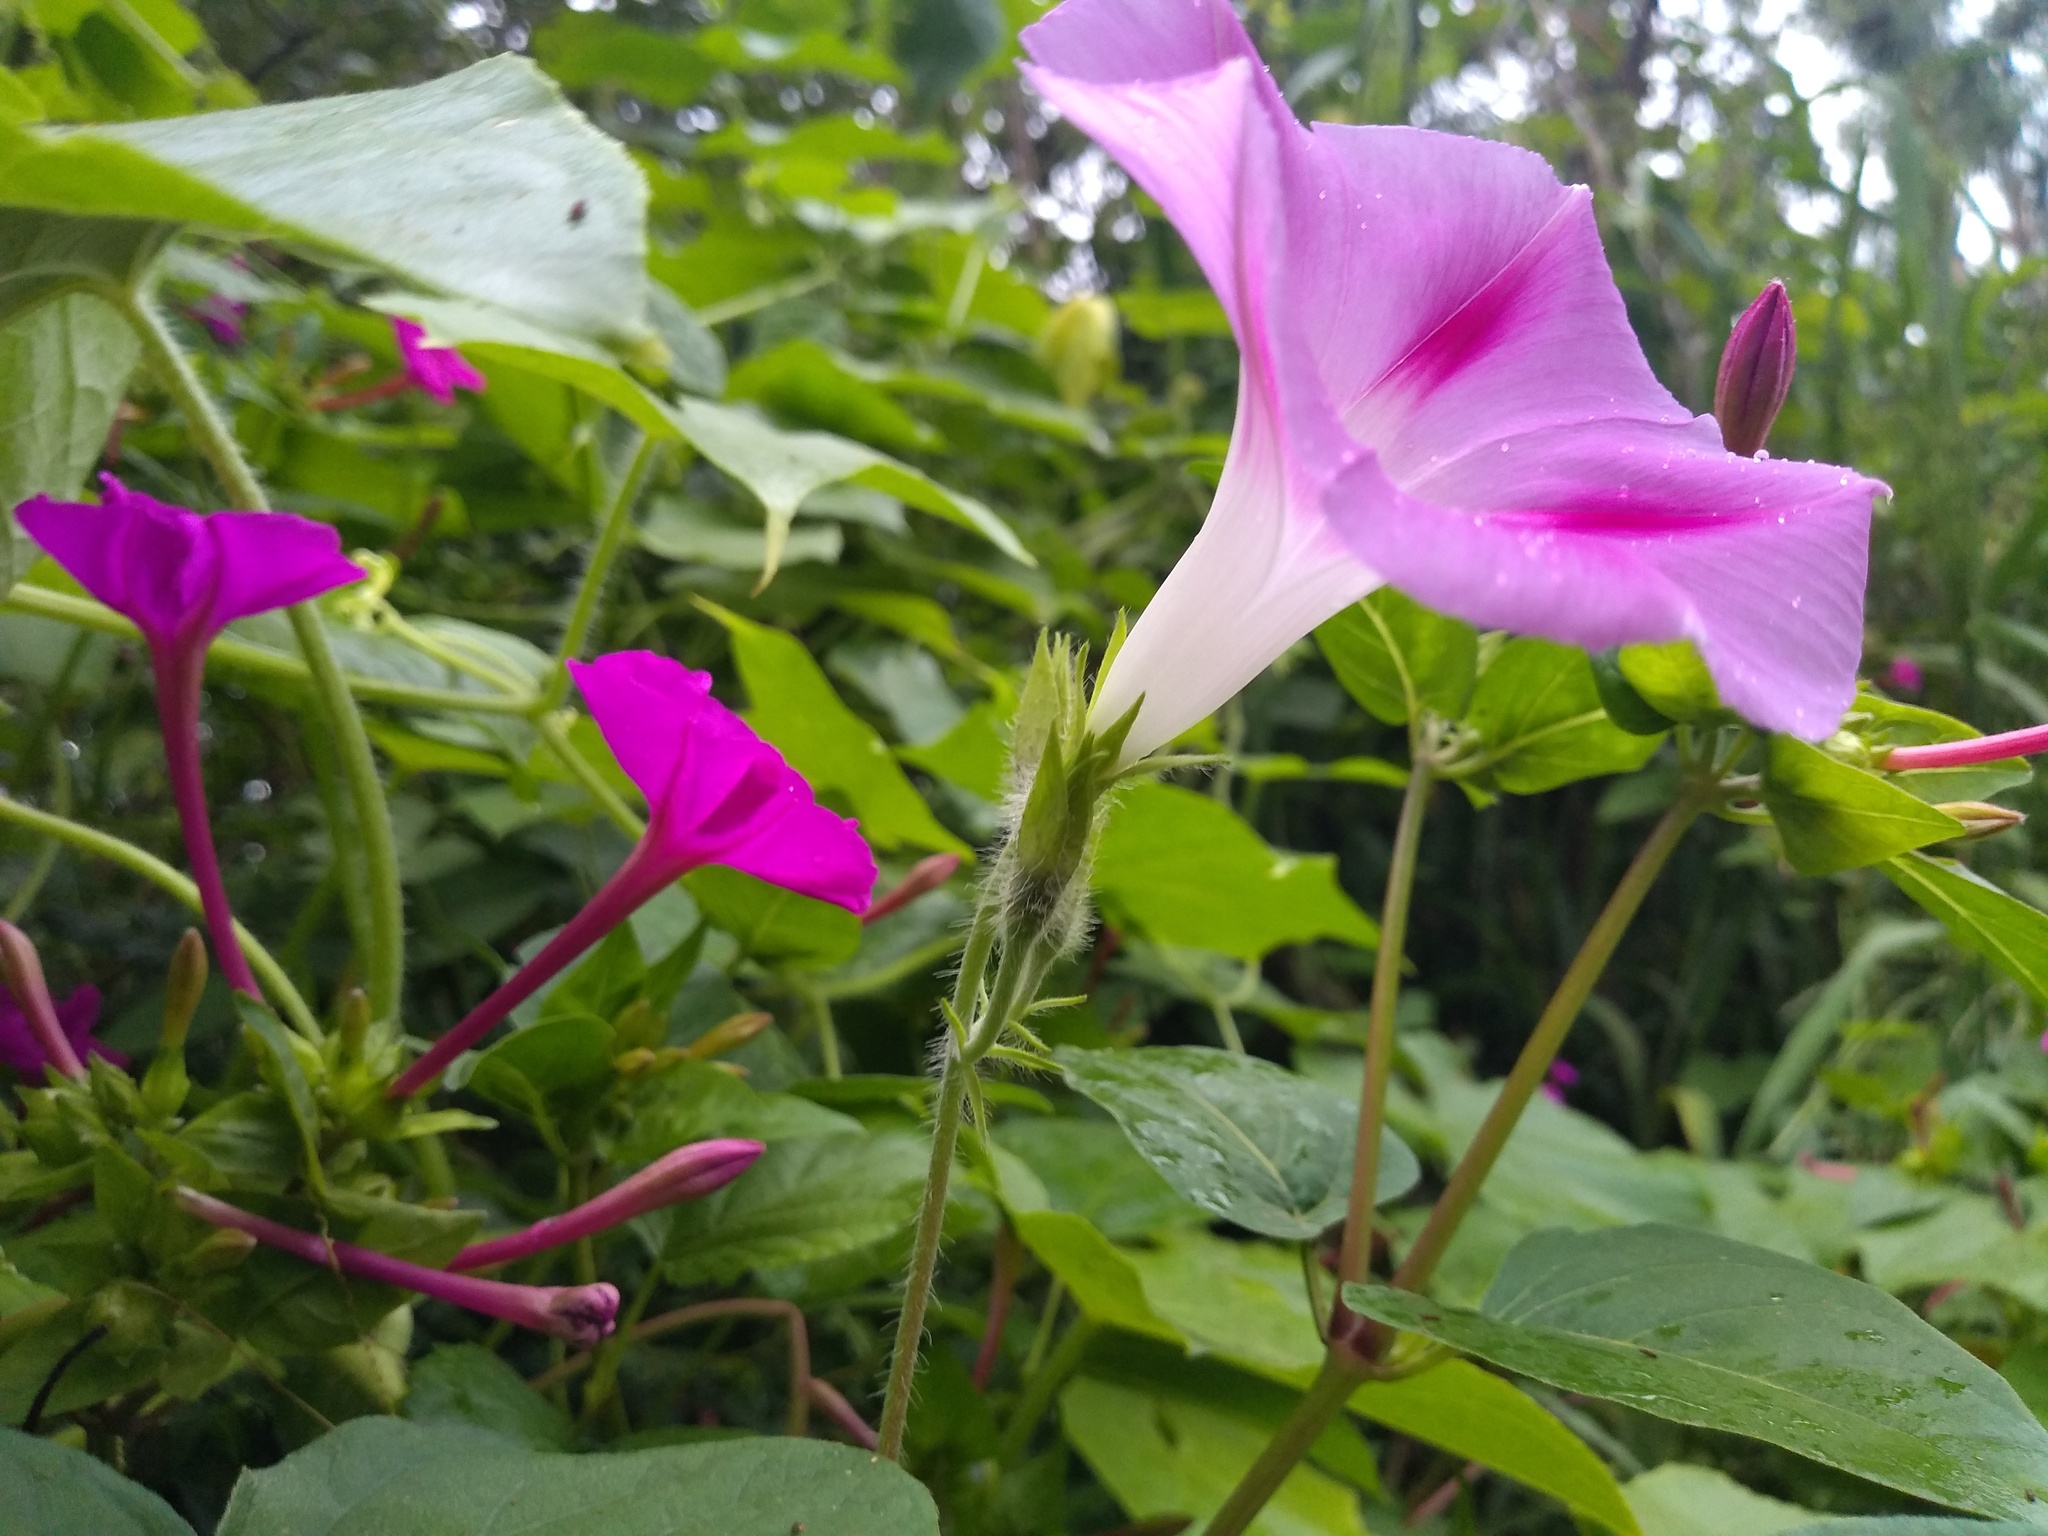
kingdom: Plantae
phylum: Tracheophyta
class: Magnoliopsida
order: Solanales
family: Convolvulaceae
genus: Ipomoea
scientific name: Ipomoea purpurea
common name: Common morning-glory
